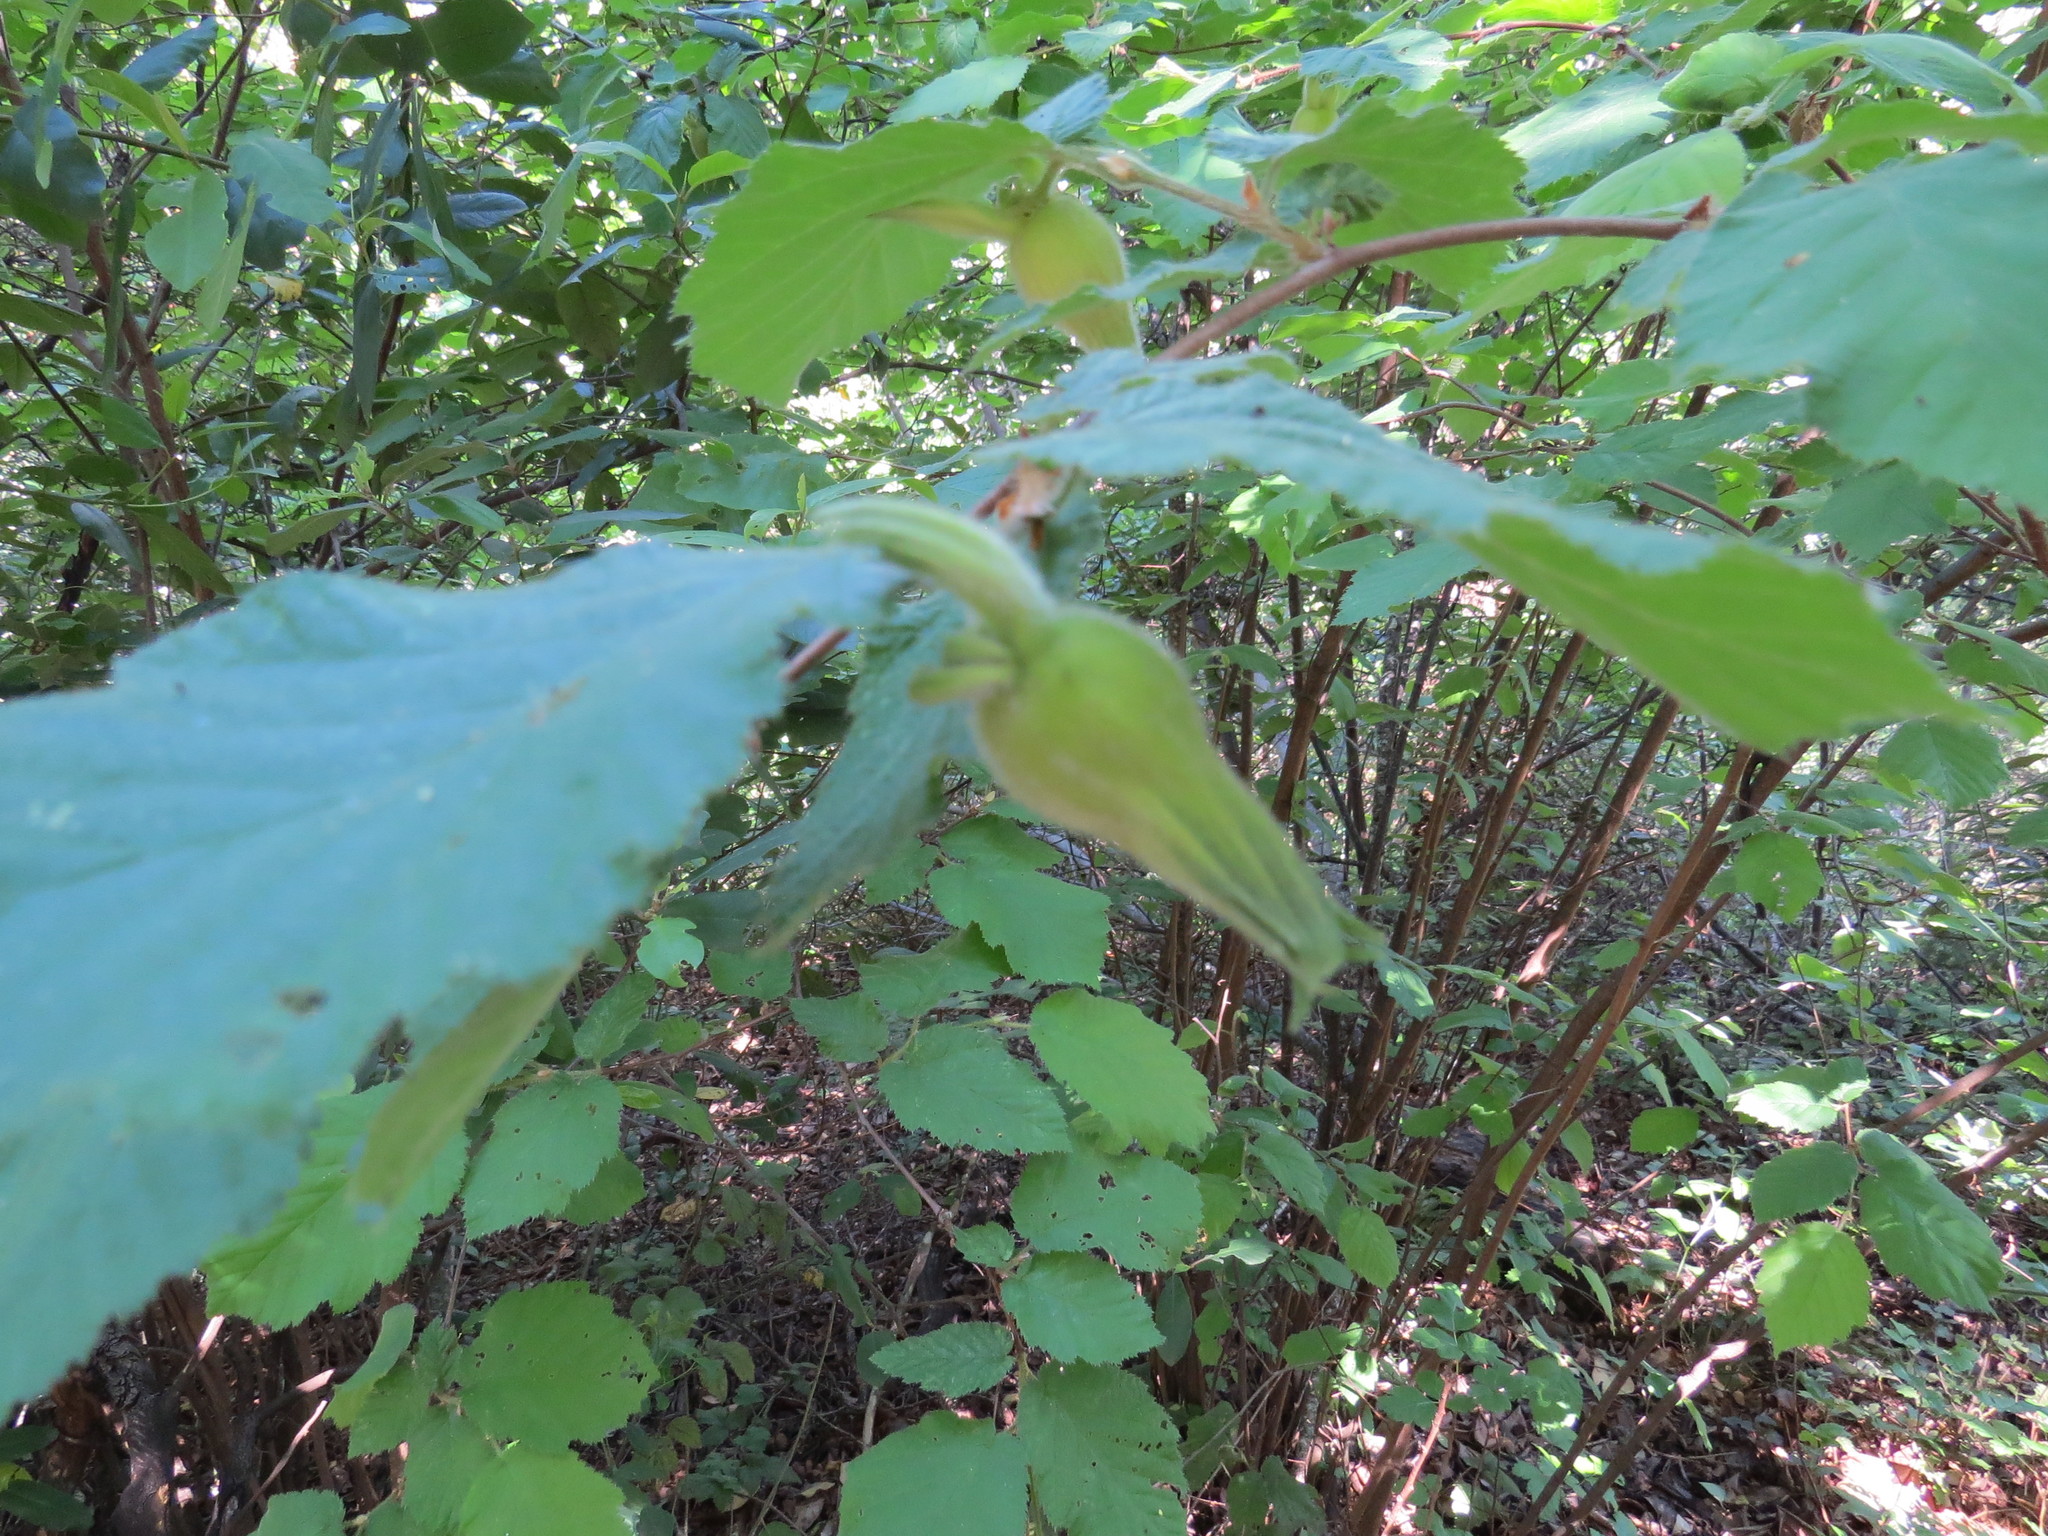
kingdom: Plantae
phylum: Tracheophyta
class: Magnoliopsida
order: Fagales
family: Betulaceae
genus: Corylus
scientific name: Corylus cornuta
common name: Beaked hazel
